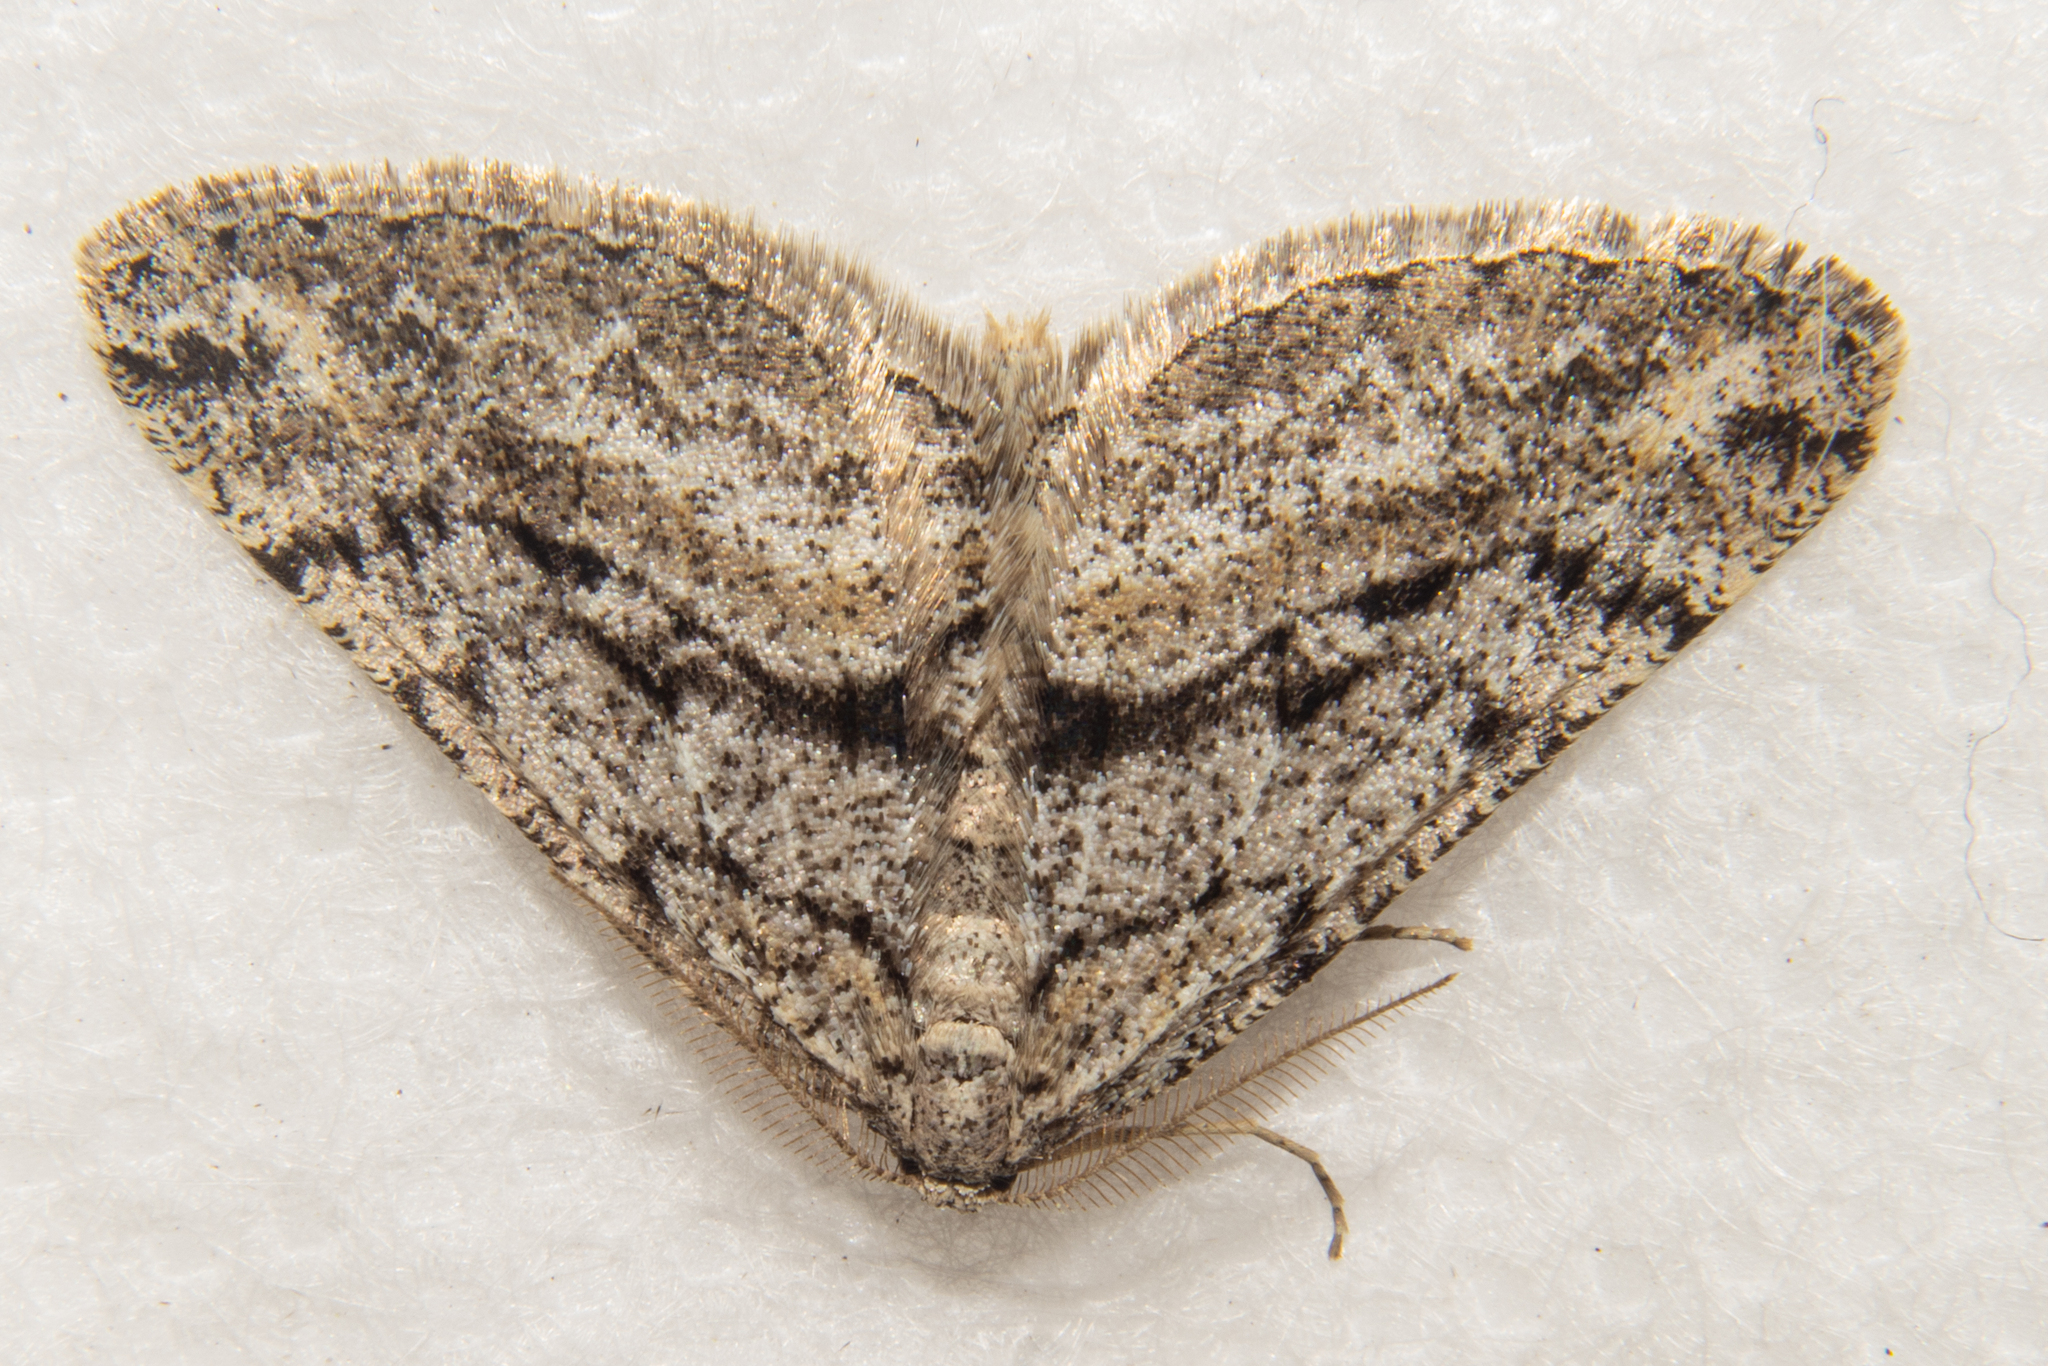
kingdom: Animalia
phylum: Arthropoda
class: Insecta
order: Lepidoptera
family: Geometridae
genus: Zermizinga
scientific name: Zermizinga indocilisaria
